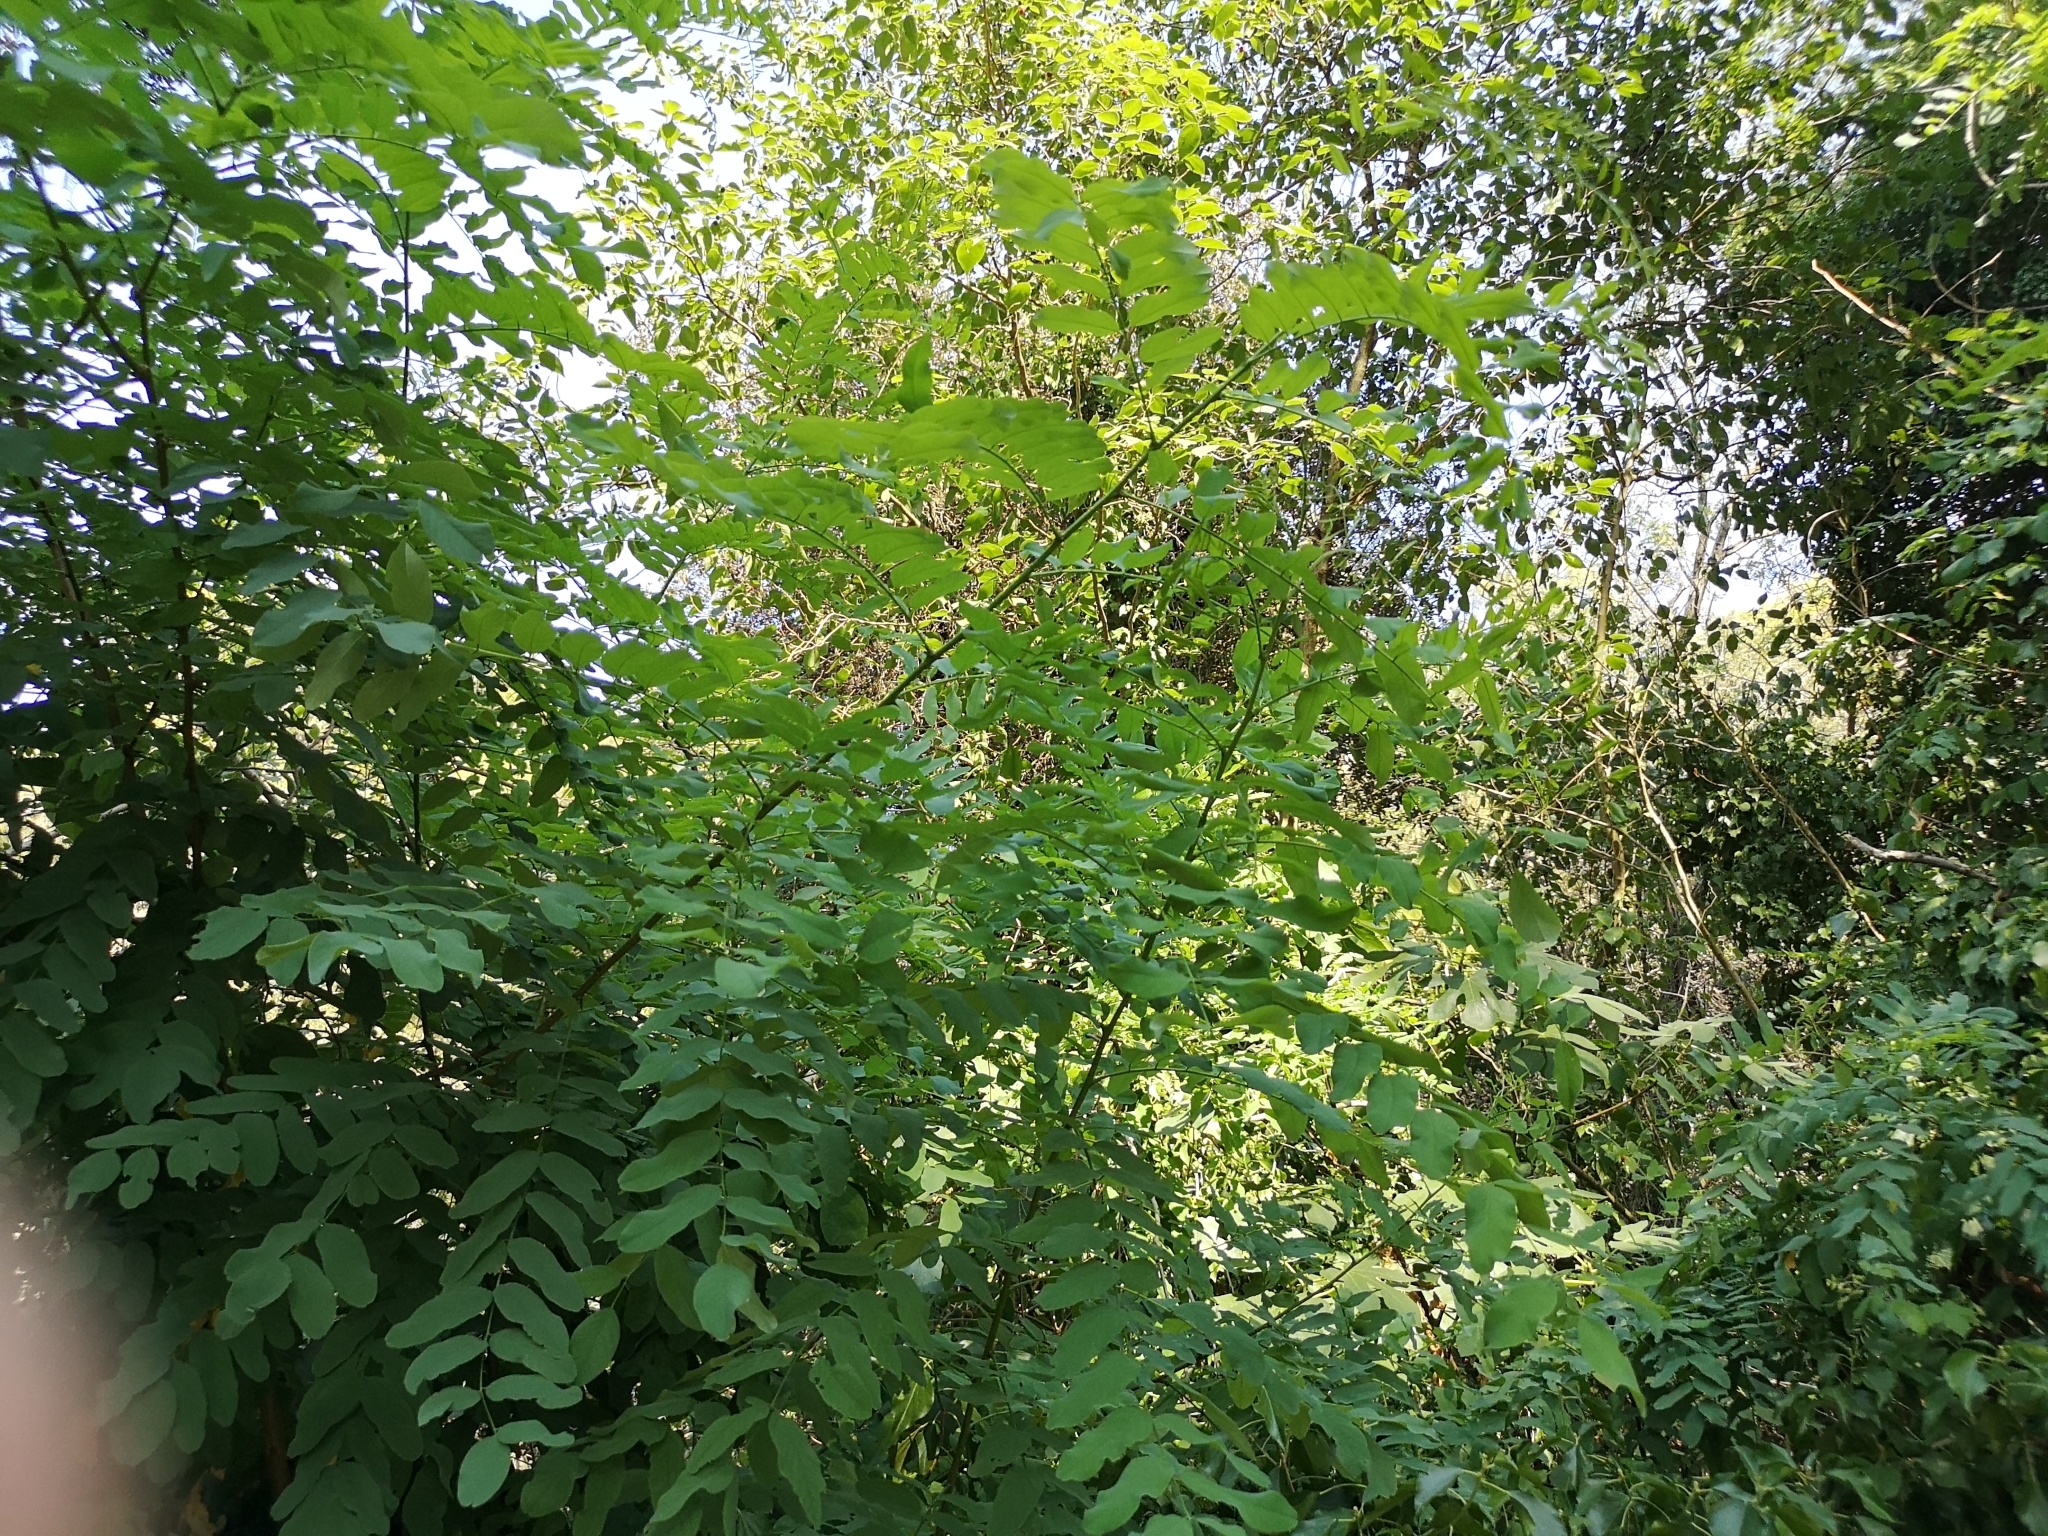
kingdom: Plantae
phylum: Tracheophyta
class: Magnoliopsida
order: Fabales
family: Fabaceae
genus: Robinia
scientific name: Robinia pseudoacacia
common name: Black locust
